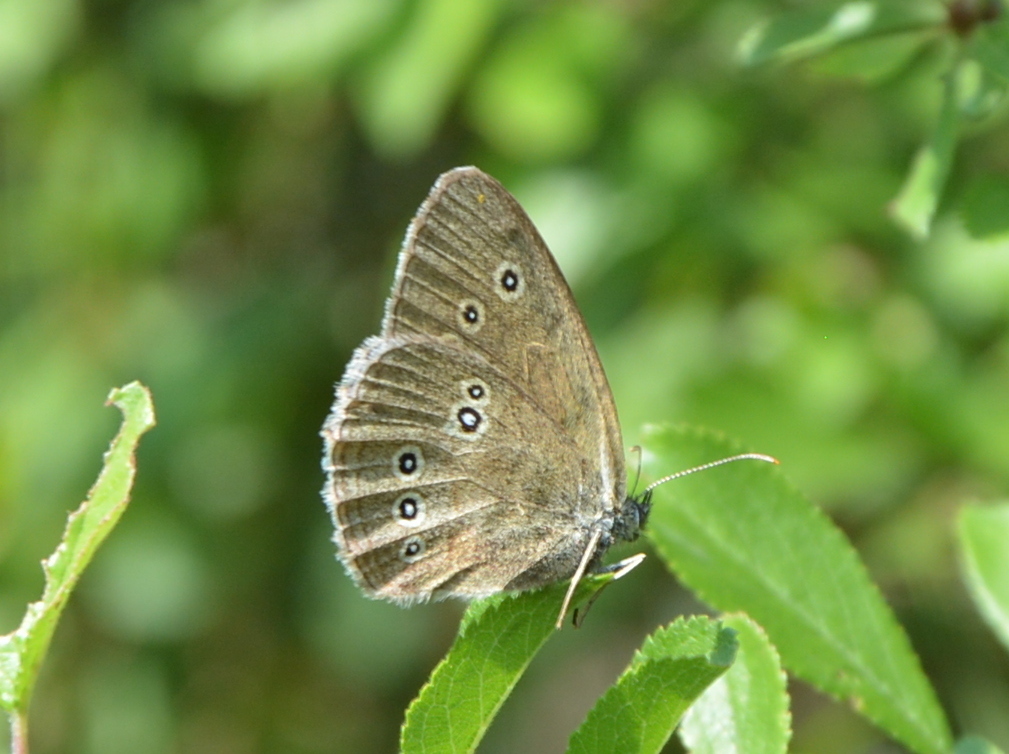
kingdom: Animalia
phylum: Arthropoda
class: Insecta
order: Lepidoptera
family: Nymphalidae
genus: Aphantopus
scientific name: Aphantopus hyperantus
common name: Ringlet
